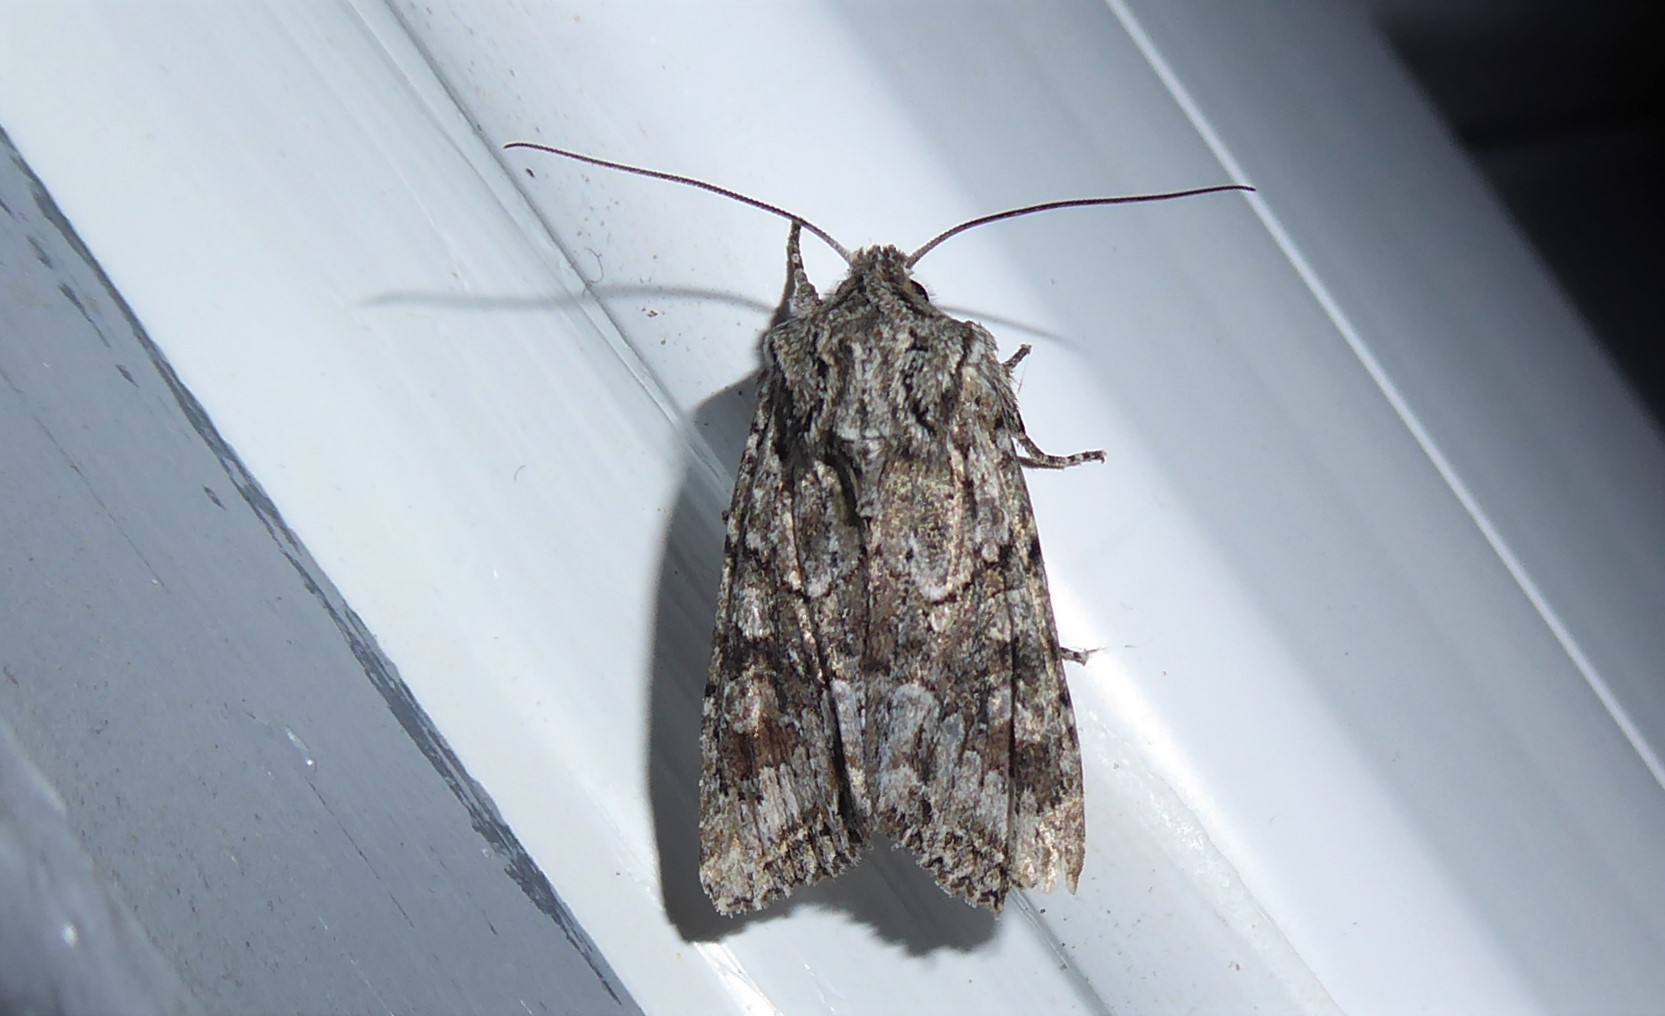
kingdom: Animalia
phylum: Arthropoda
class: Insecta
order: Lepidoptera
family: Noctuidae
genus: Ichneutica
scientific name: Ichneutica mutans
